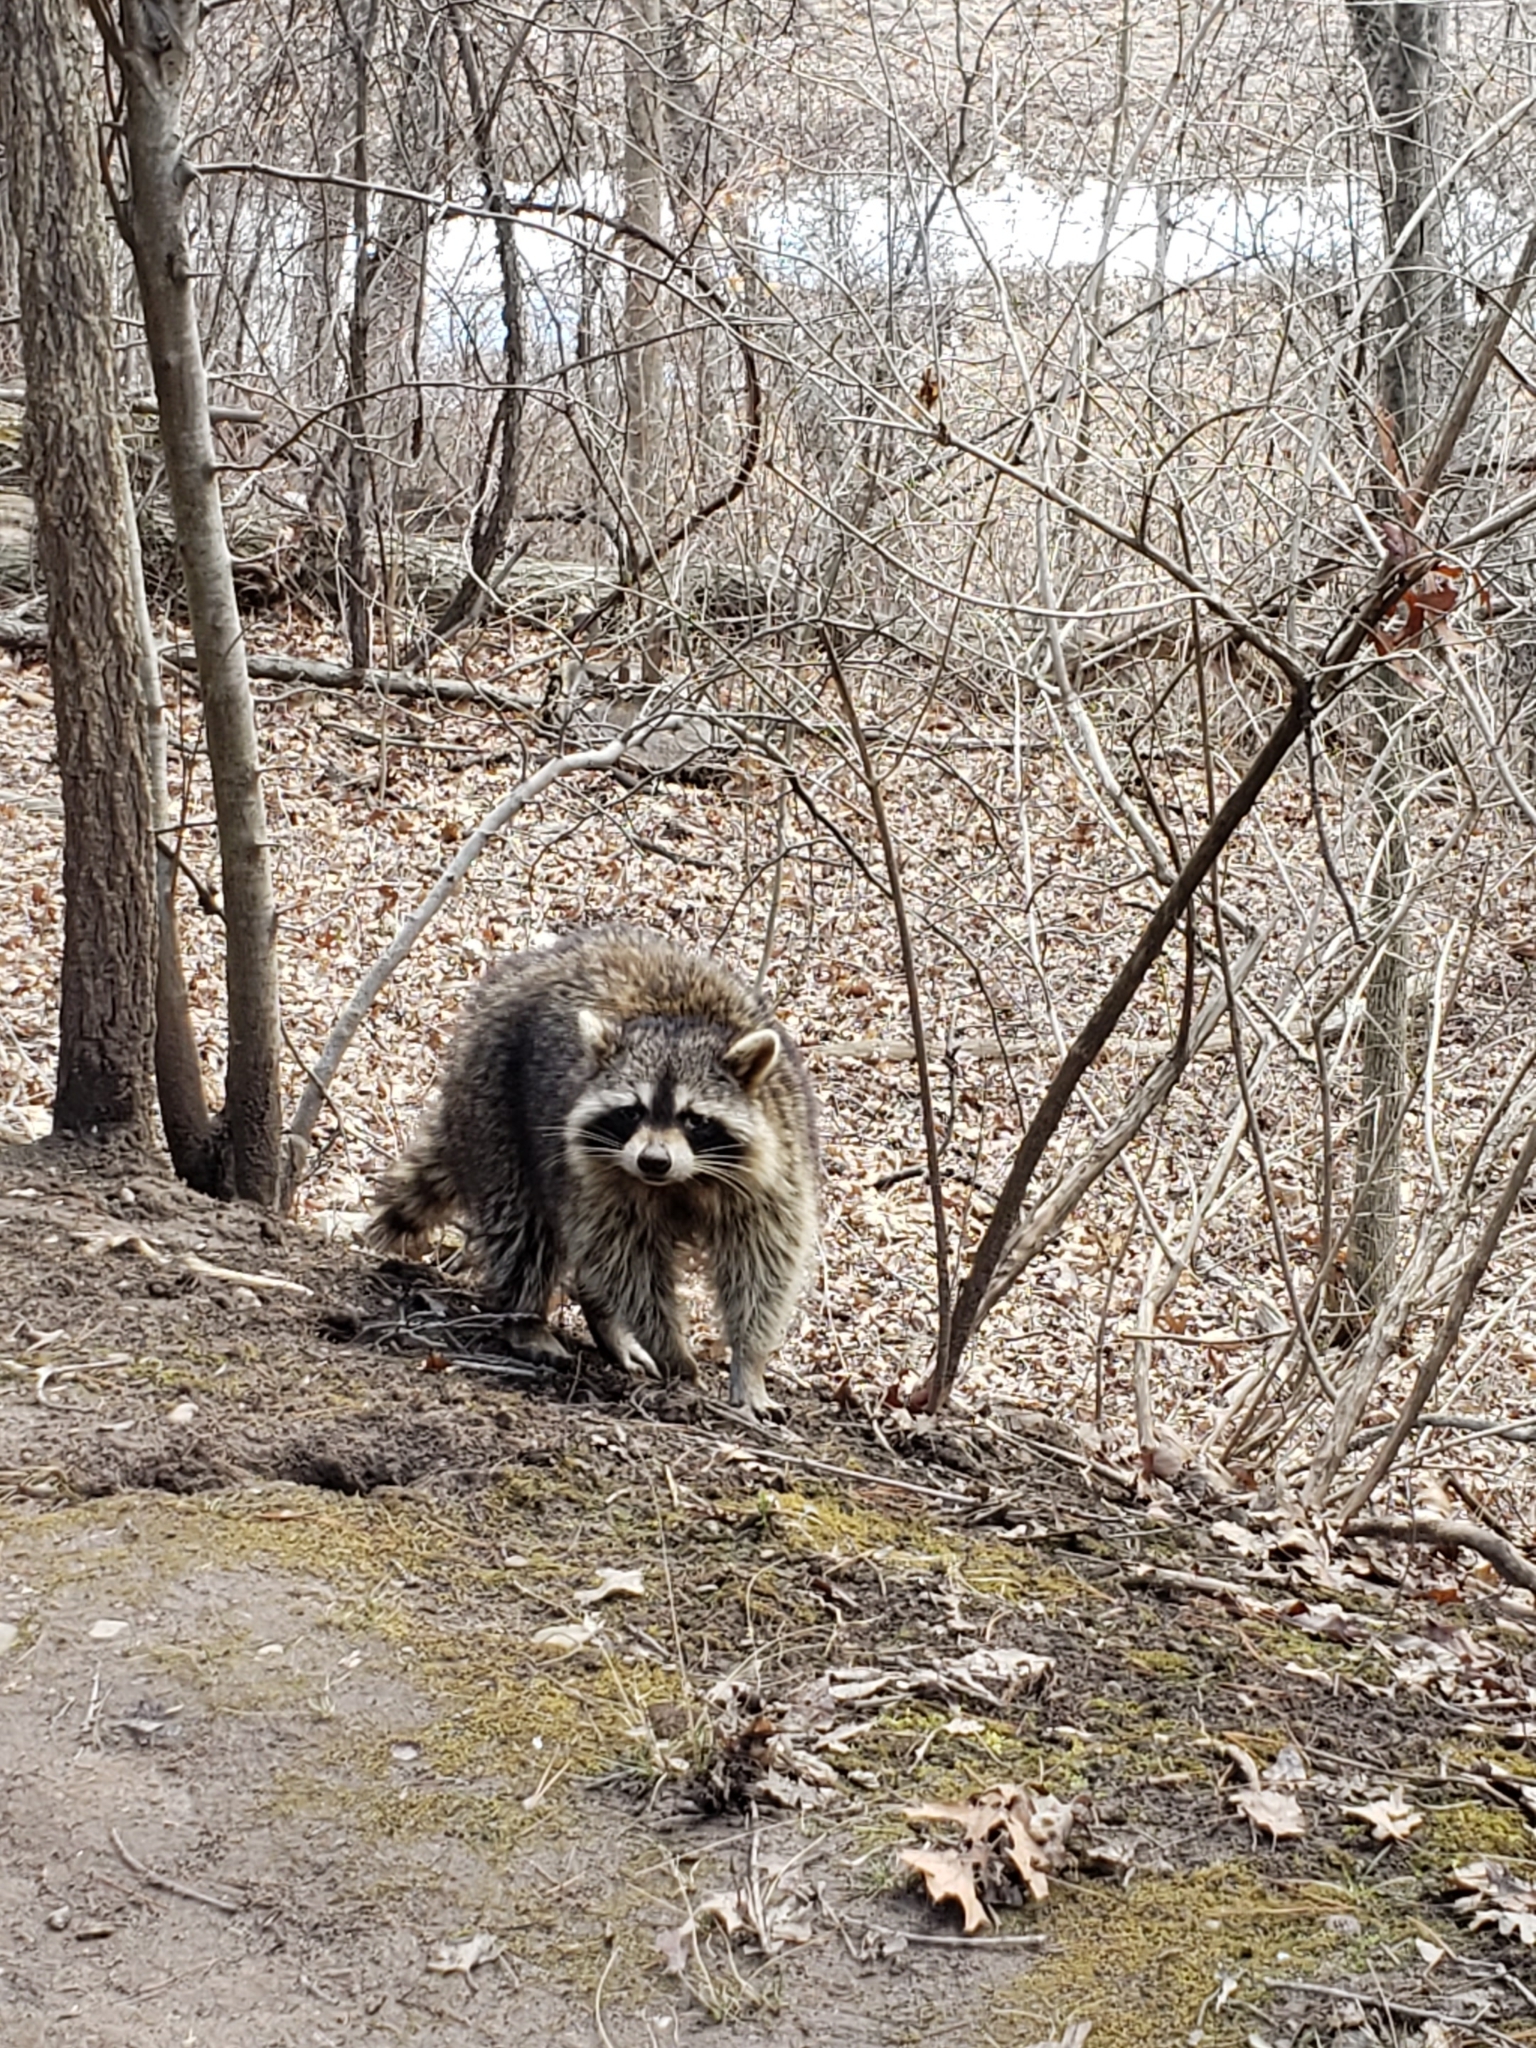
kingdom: Animalia
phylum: Chordata
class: Mammalia
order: Carnivora
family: Procyonidae
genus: Procyon
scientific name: Procyon lotor
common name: Raccoon
